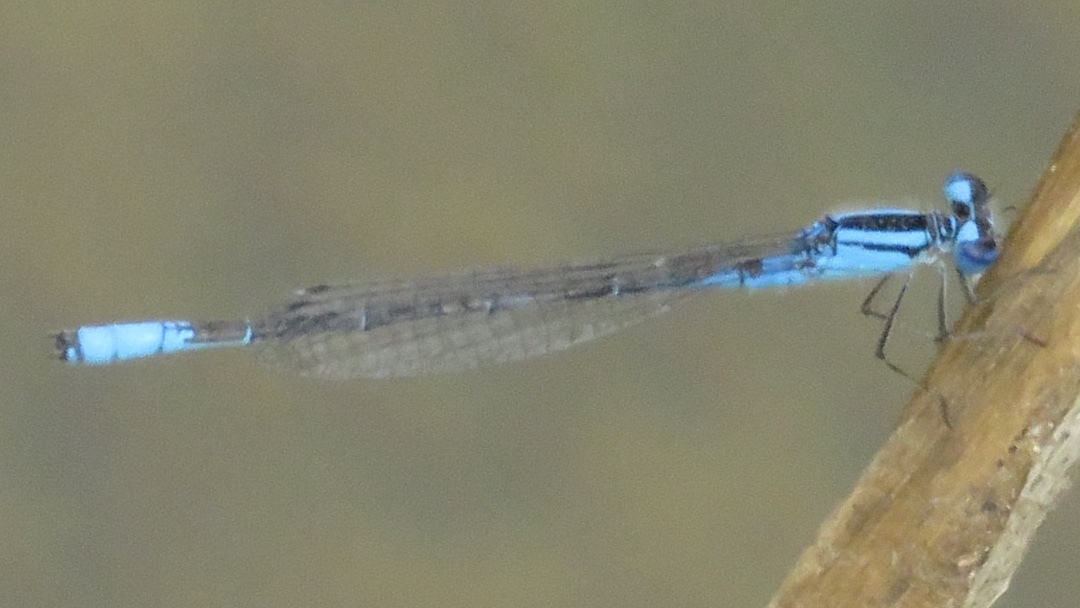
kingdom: Animalia
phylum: Arthropoda
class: Insecta
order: Odonata
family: Coenagrionidae
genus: Enallagma
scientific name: Enallagma aspersum
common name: Azure bluet
